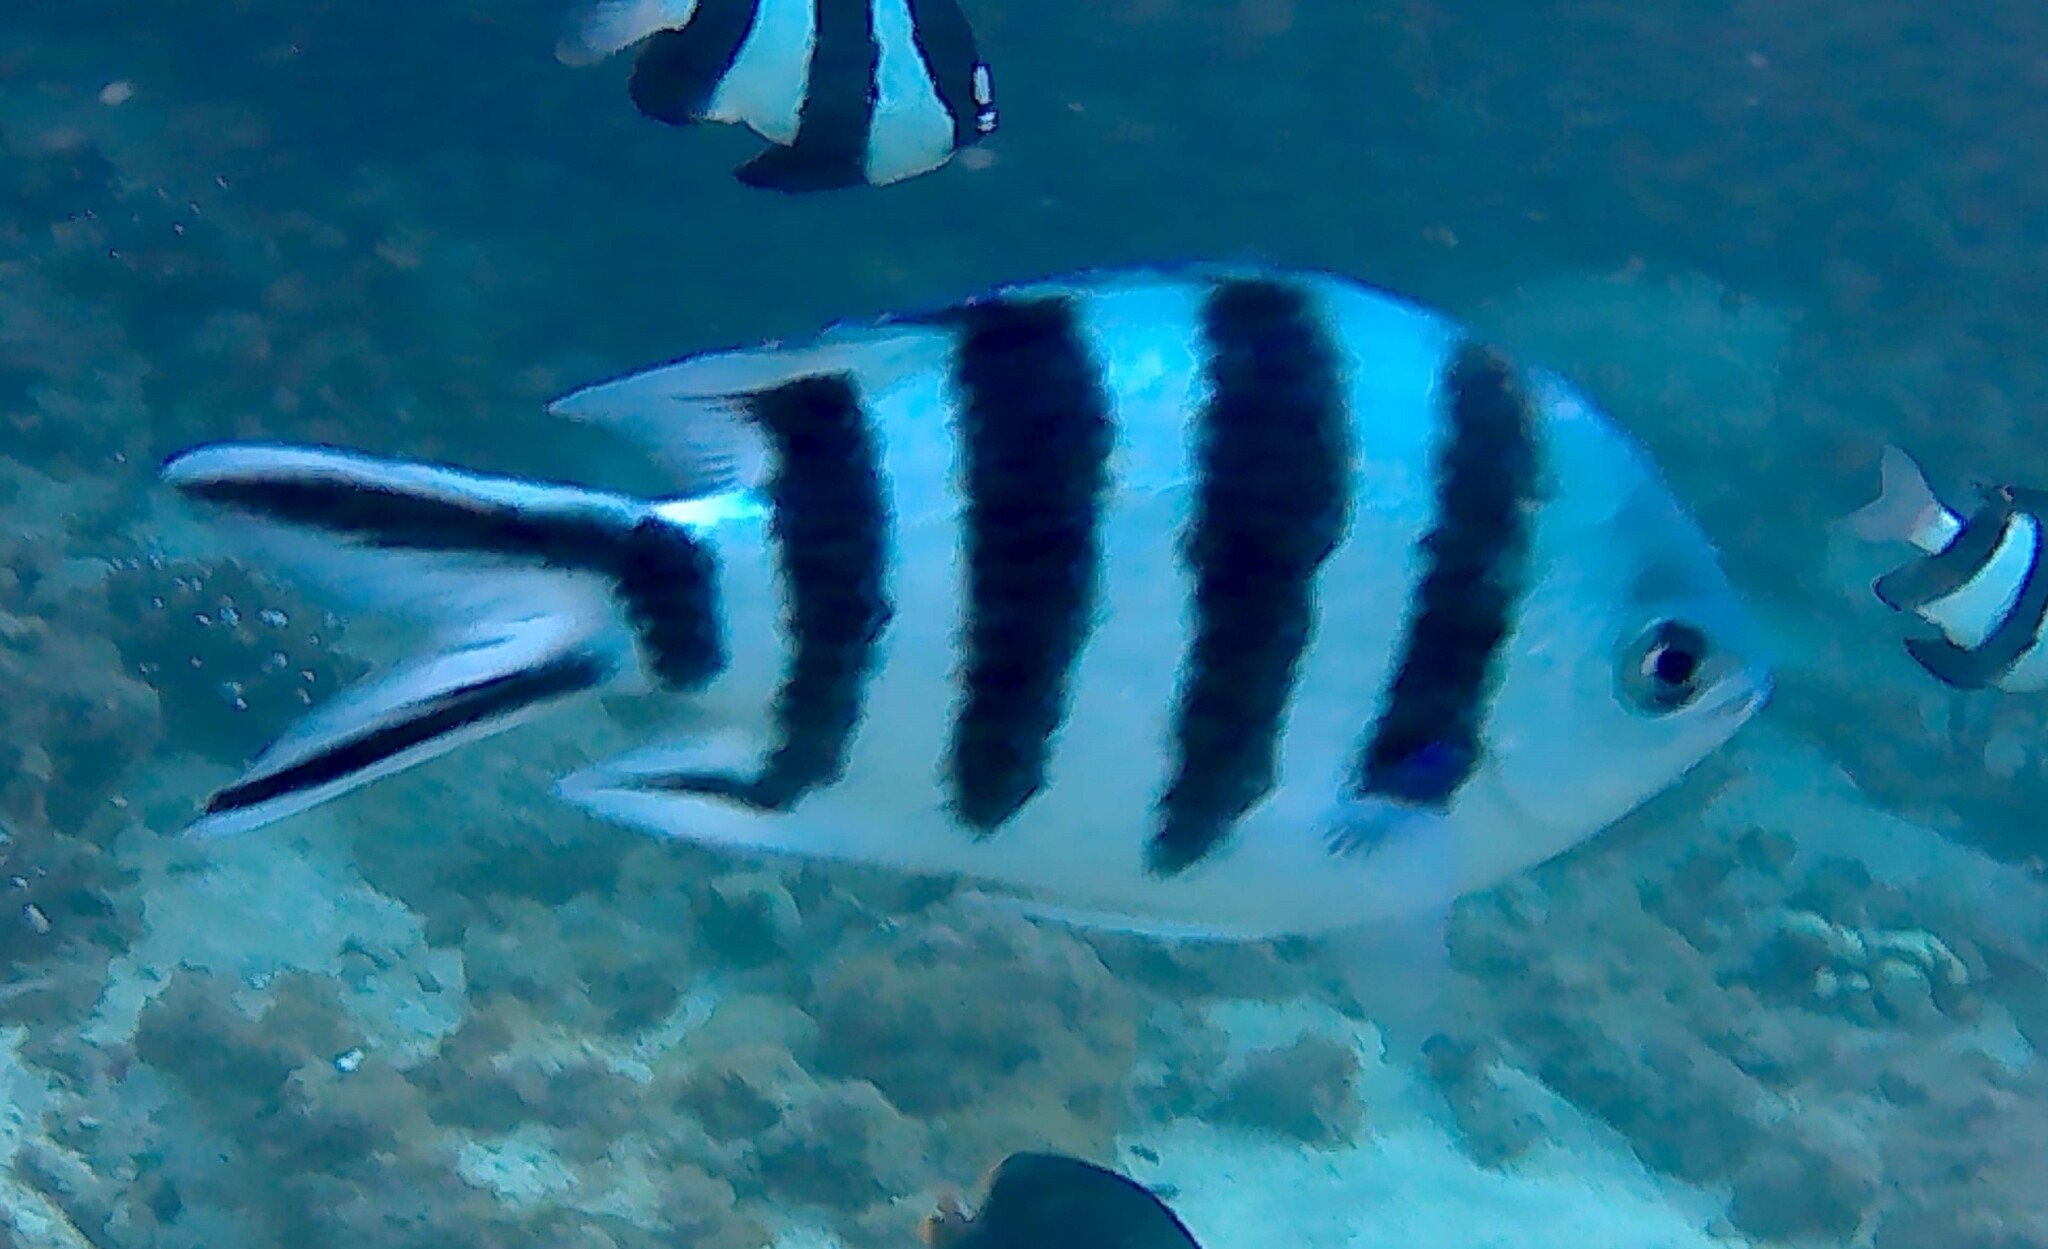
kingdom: Animalia
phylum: Chordata
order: Perciformes
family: Pomacentridae
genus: Abudefduf
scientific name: Abudefduf sexfasciatus
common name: Scissortail sergeant
